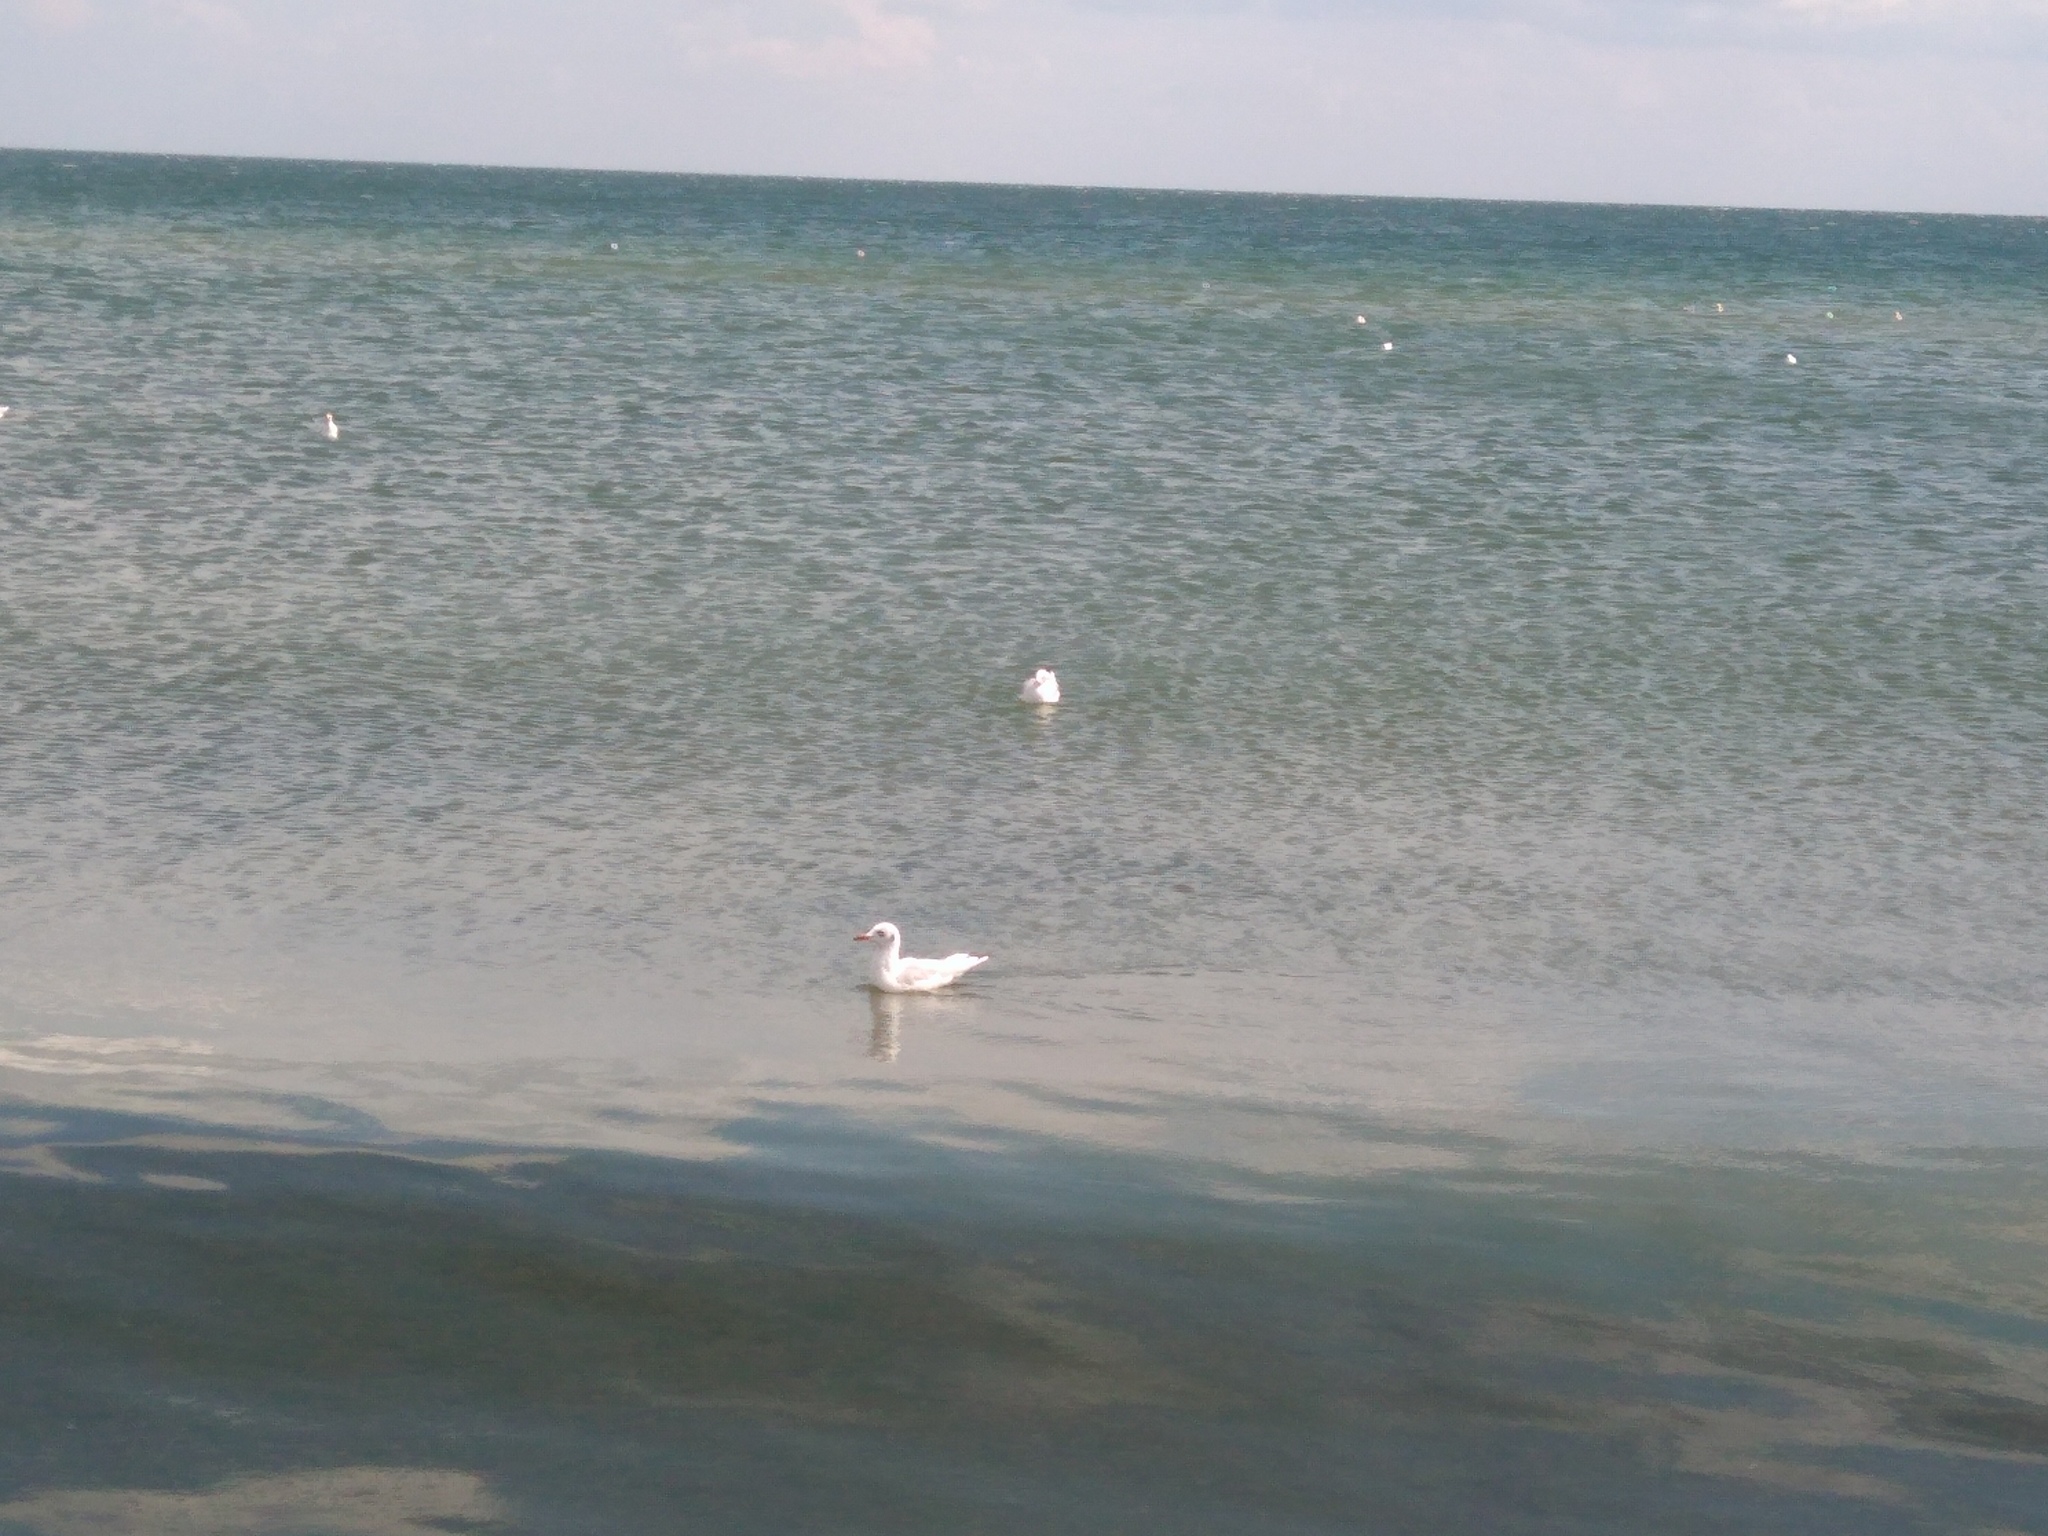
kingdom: Animalia
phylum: Chordata
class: Aves
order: Charadriiformes
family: Laridae
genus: Chroicocephalus
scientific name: Chroicocephalus ridibundus
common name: Black-headed gull
